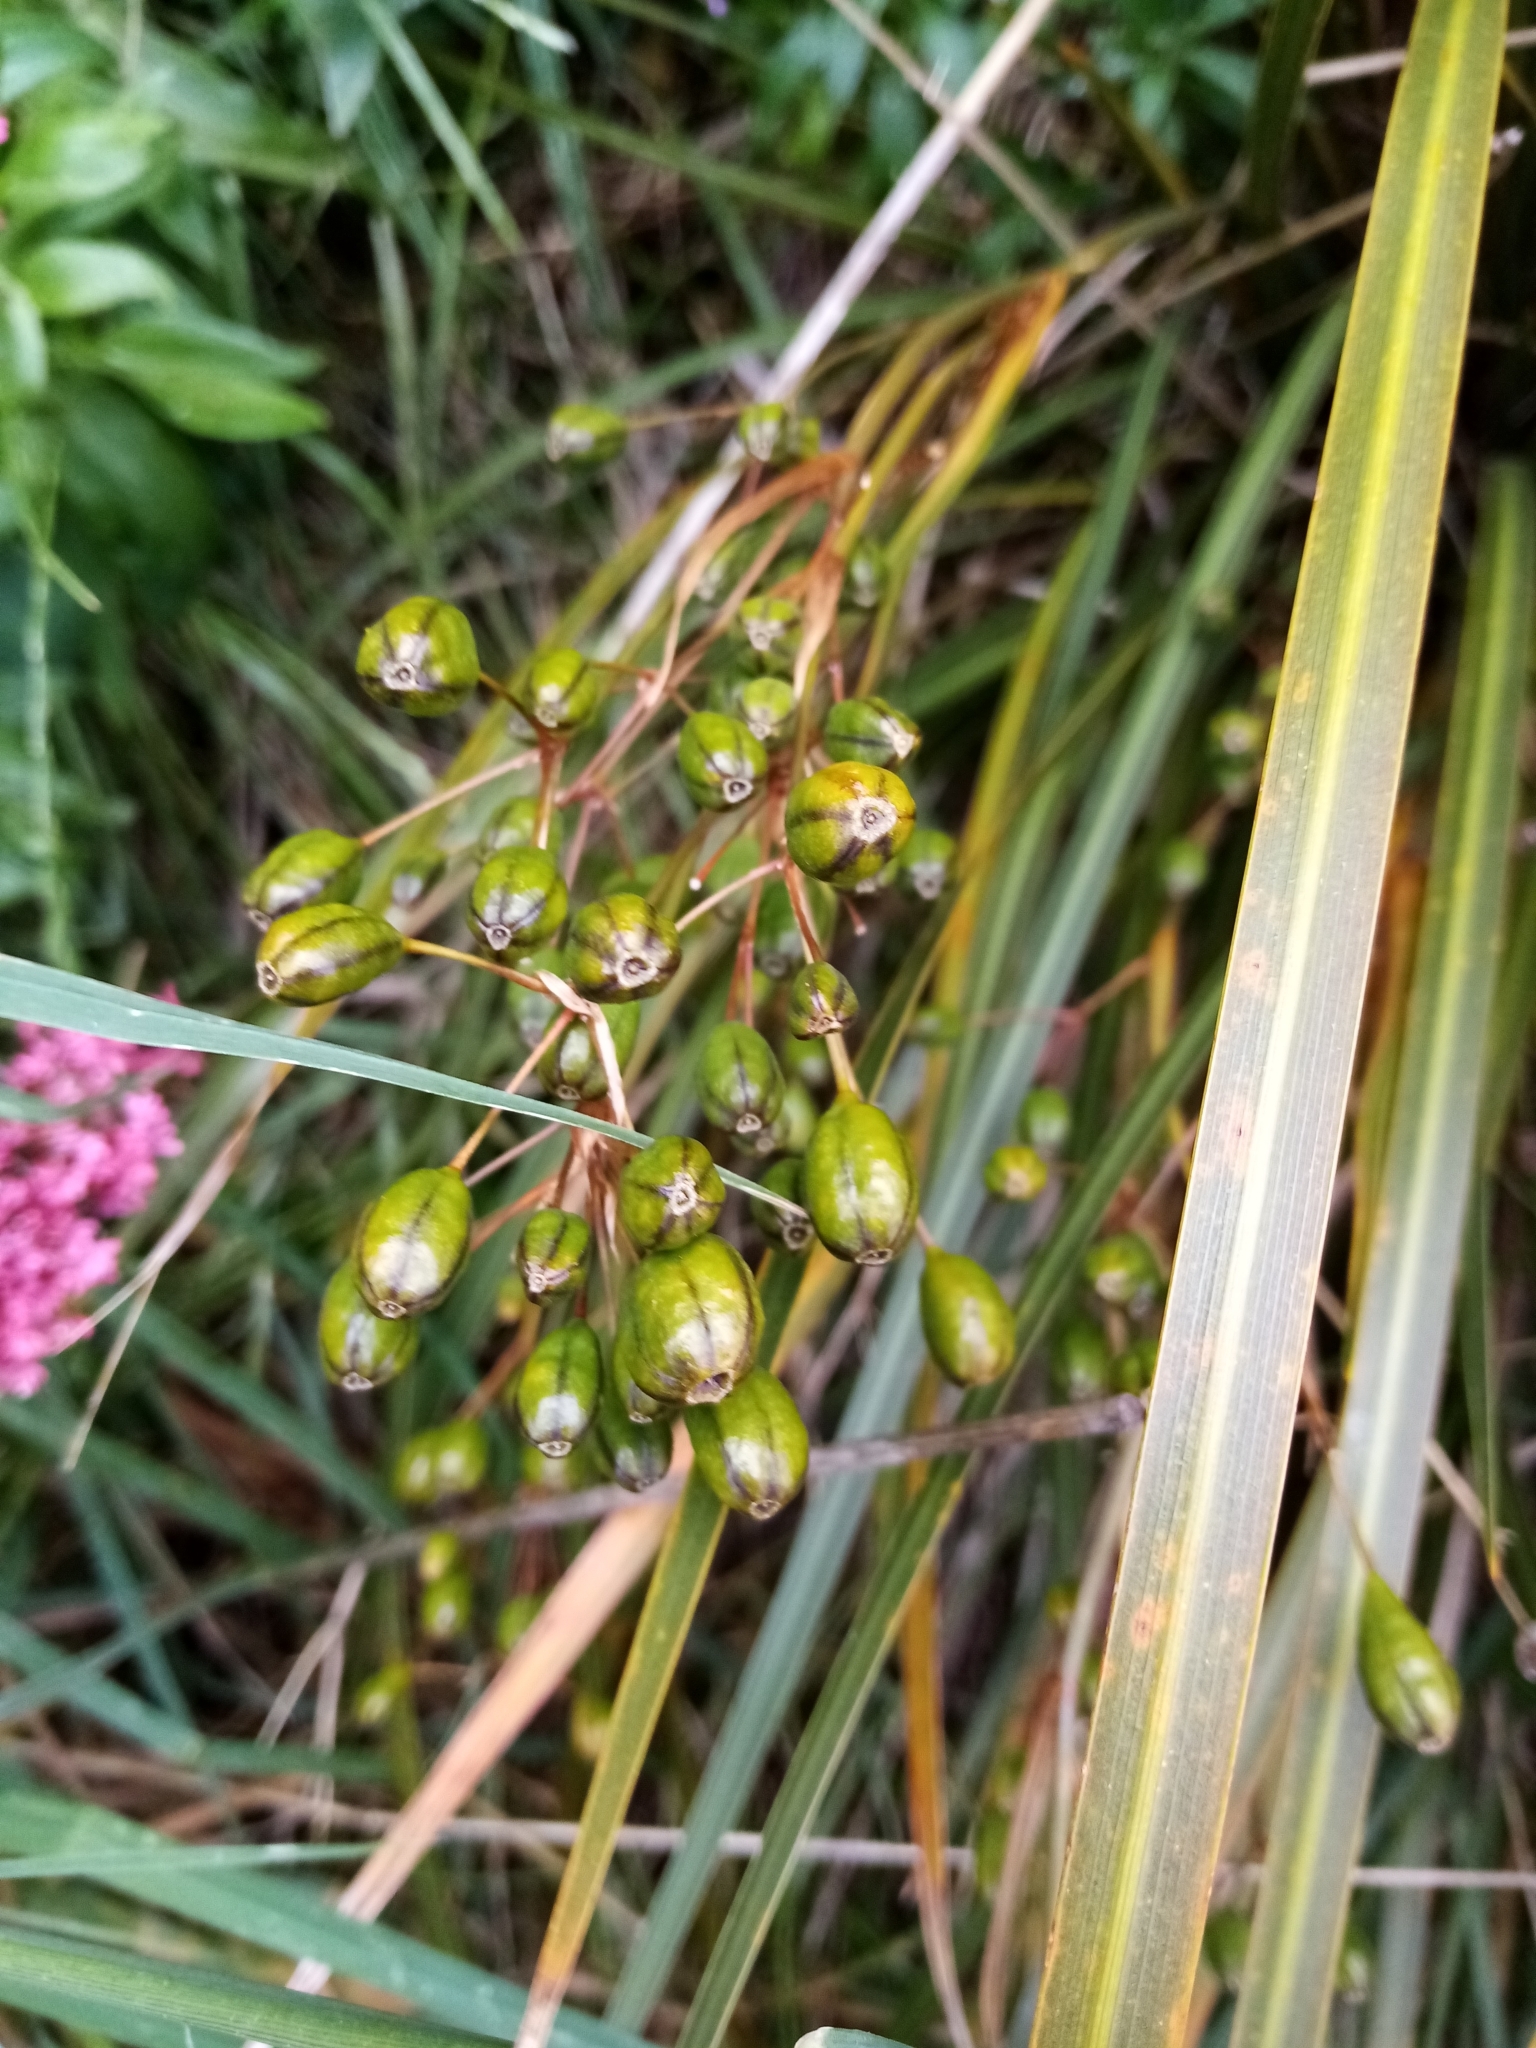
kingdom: Plantae
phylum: Tracheophyta
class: Liliopsida
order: Asparagales
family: Iridaceae
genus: Libertia
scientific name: Libertia ixioides
